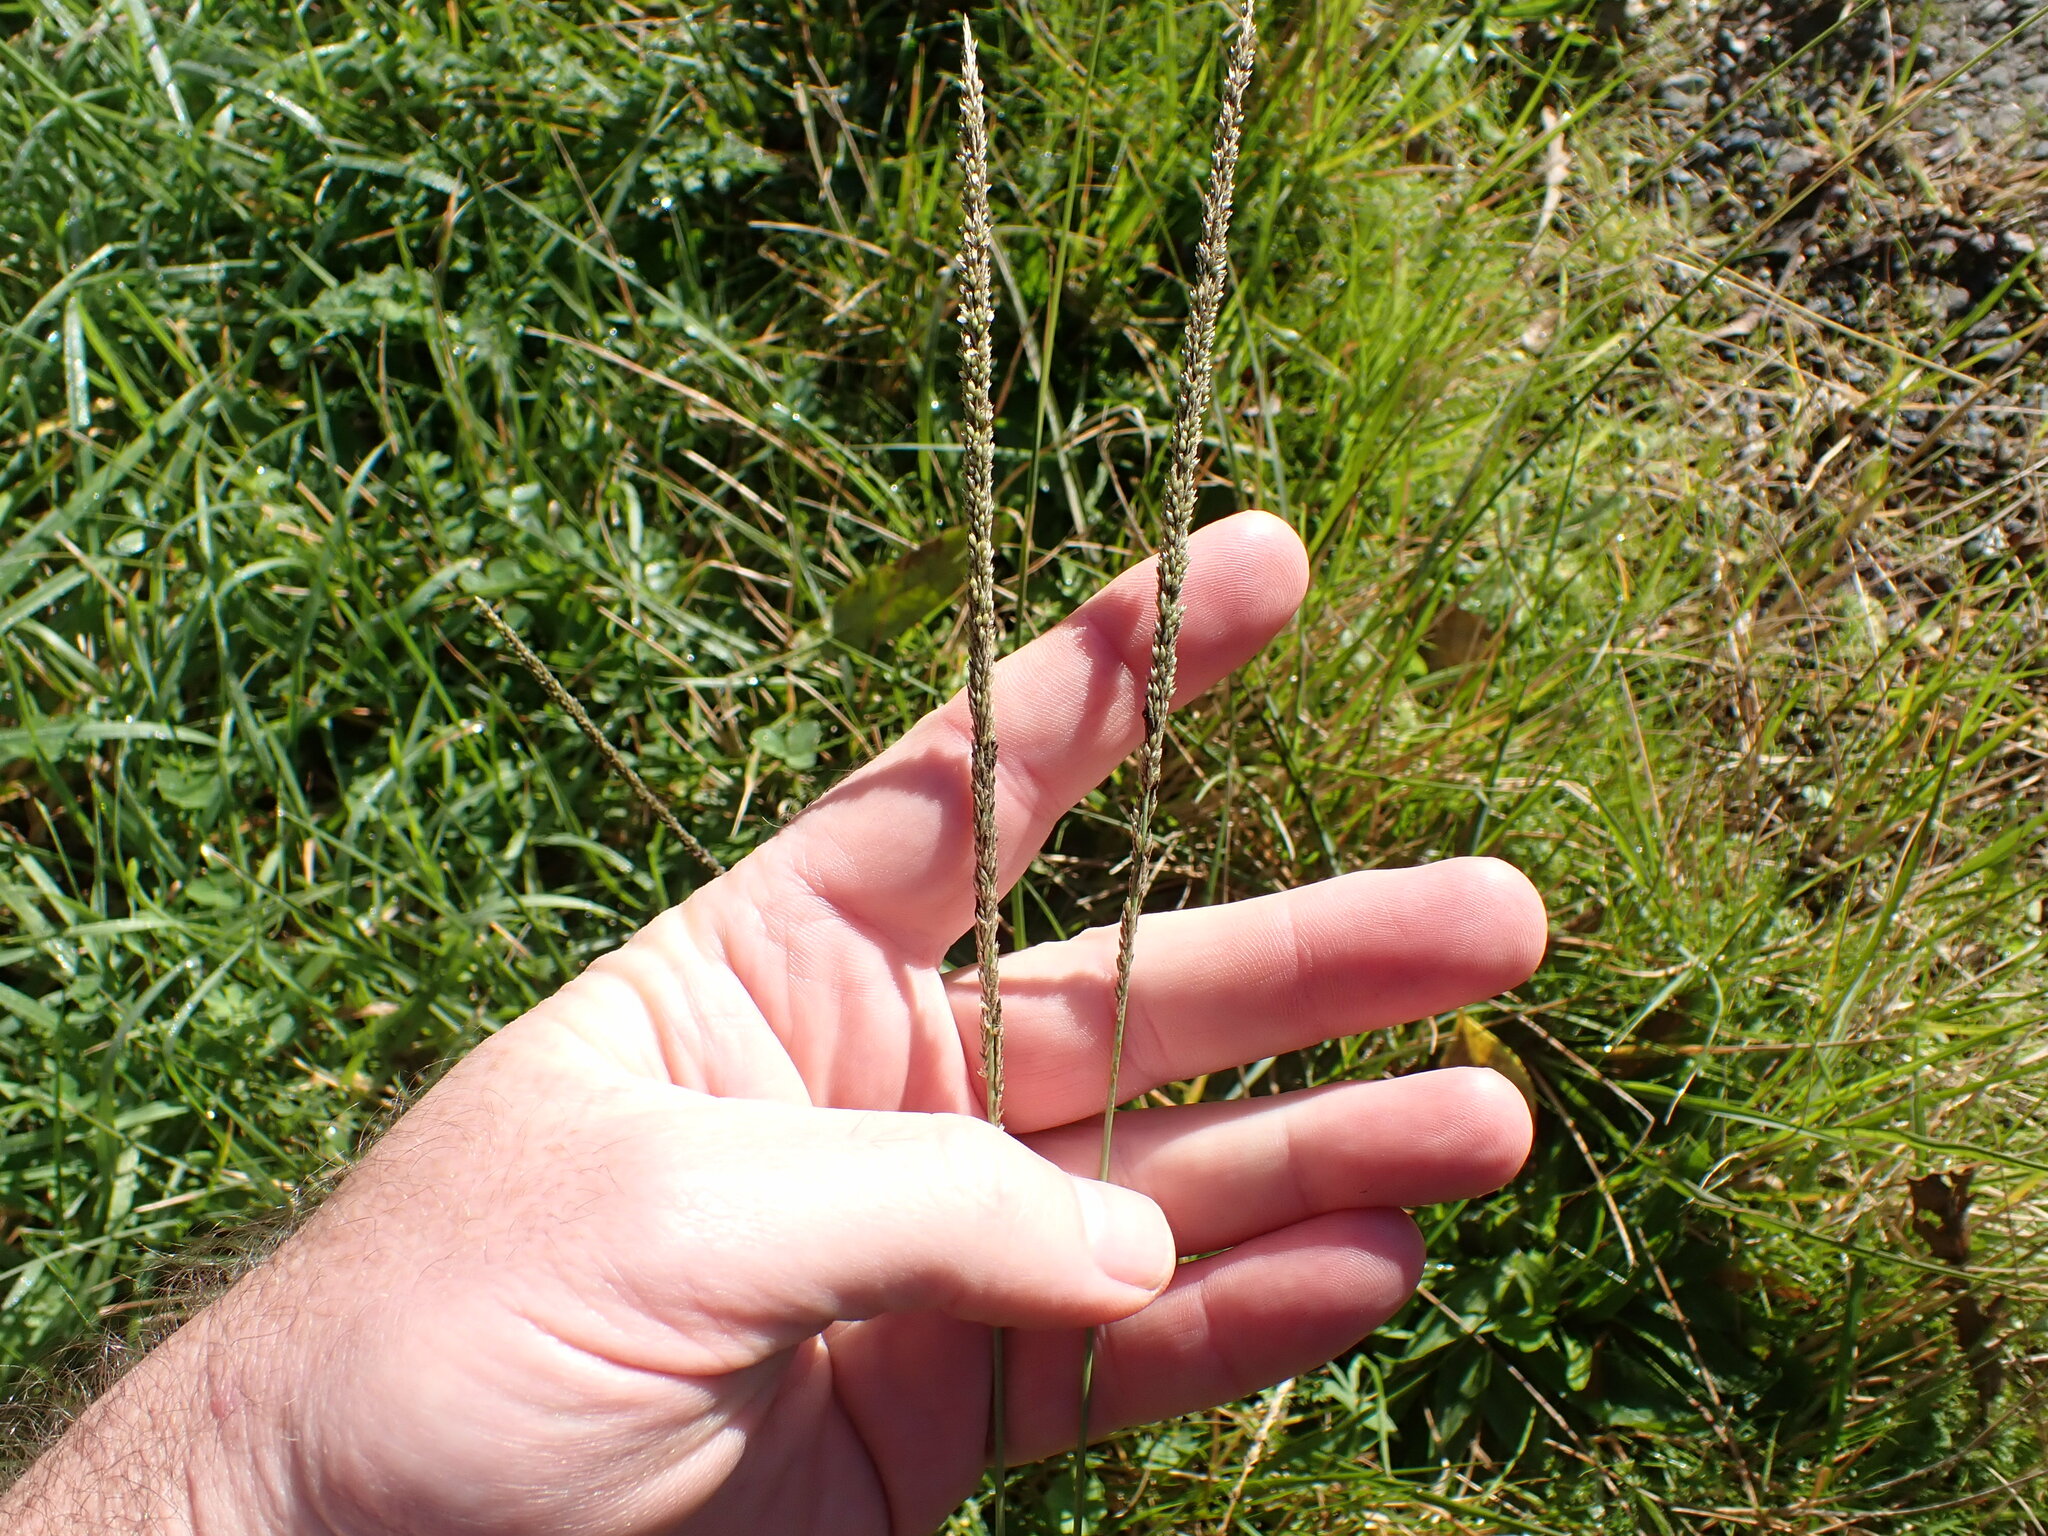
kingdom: Plantae
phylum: Tracheophyta
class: Liliopsida
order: Poales
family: Poaceae
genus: Sporobolus
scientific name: Sporobolus africanus
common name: African dropseed
